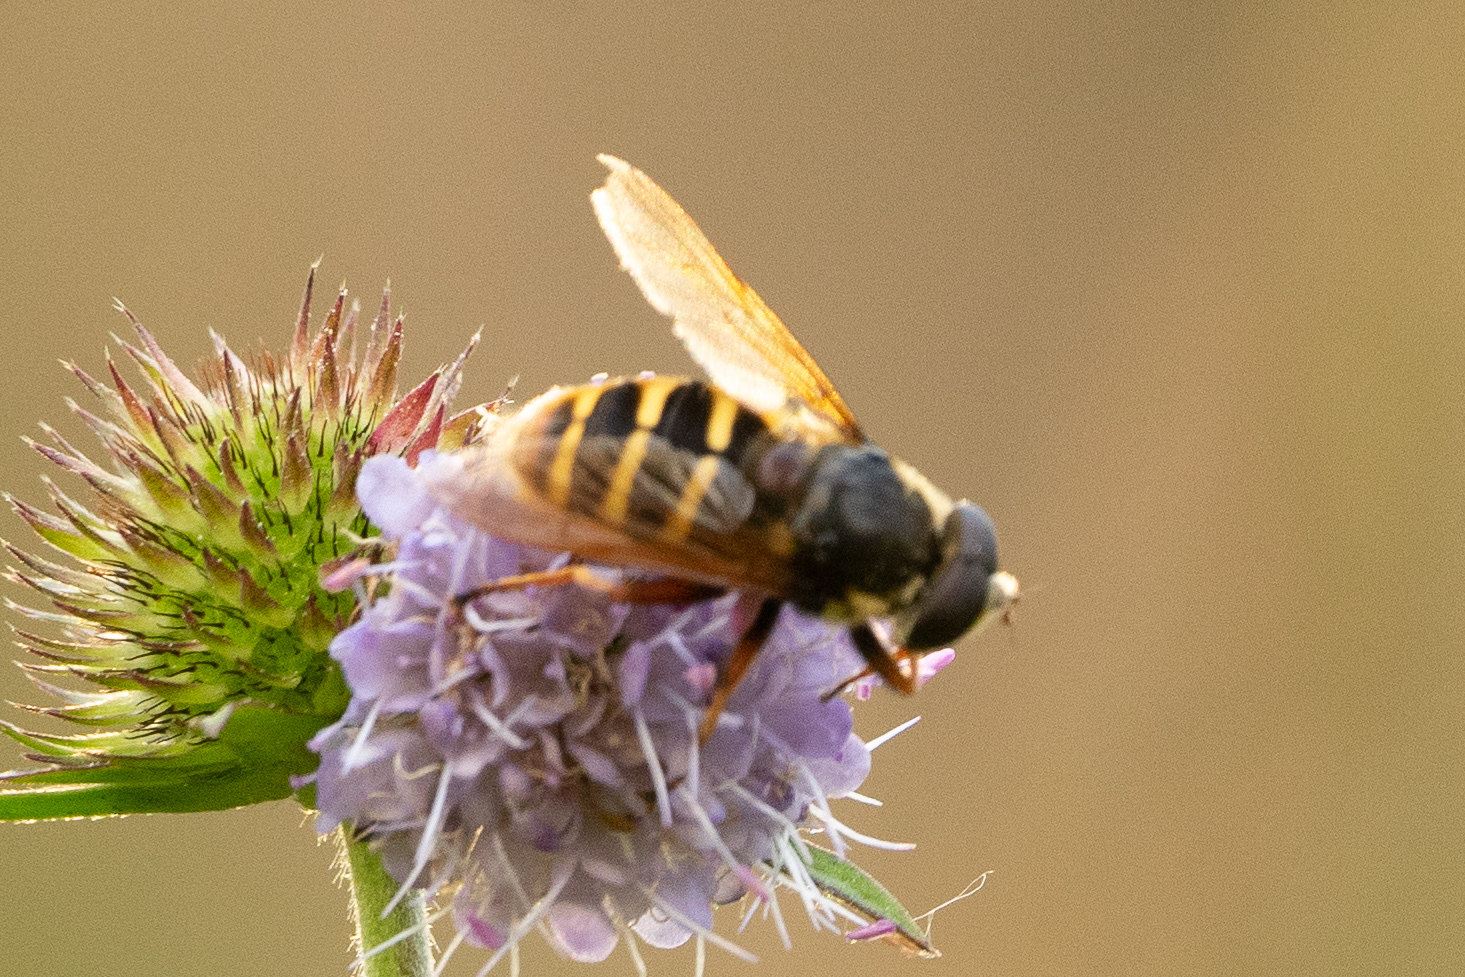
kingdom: Animalia
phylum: Arthropoda
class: Insecta
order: Diptera
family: Syrphidae
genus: Sericomyia
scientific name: Sericomyia silentis
